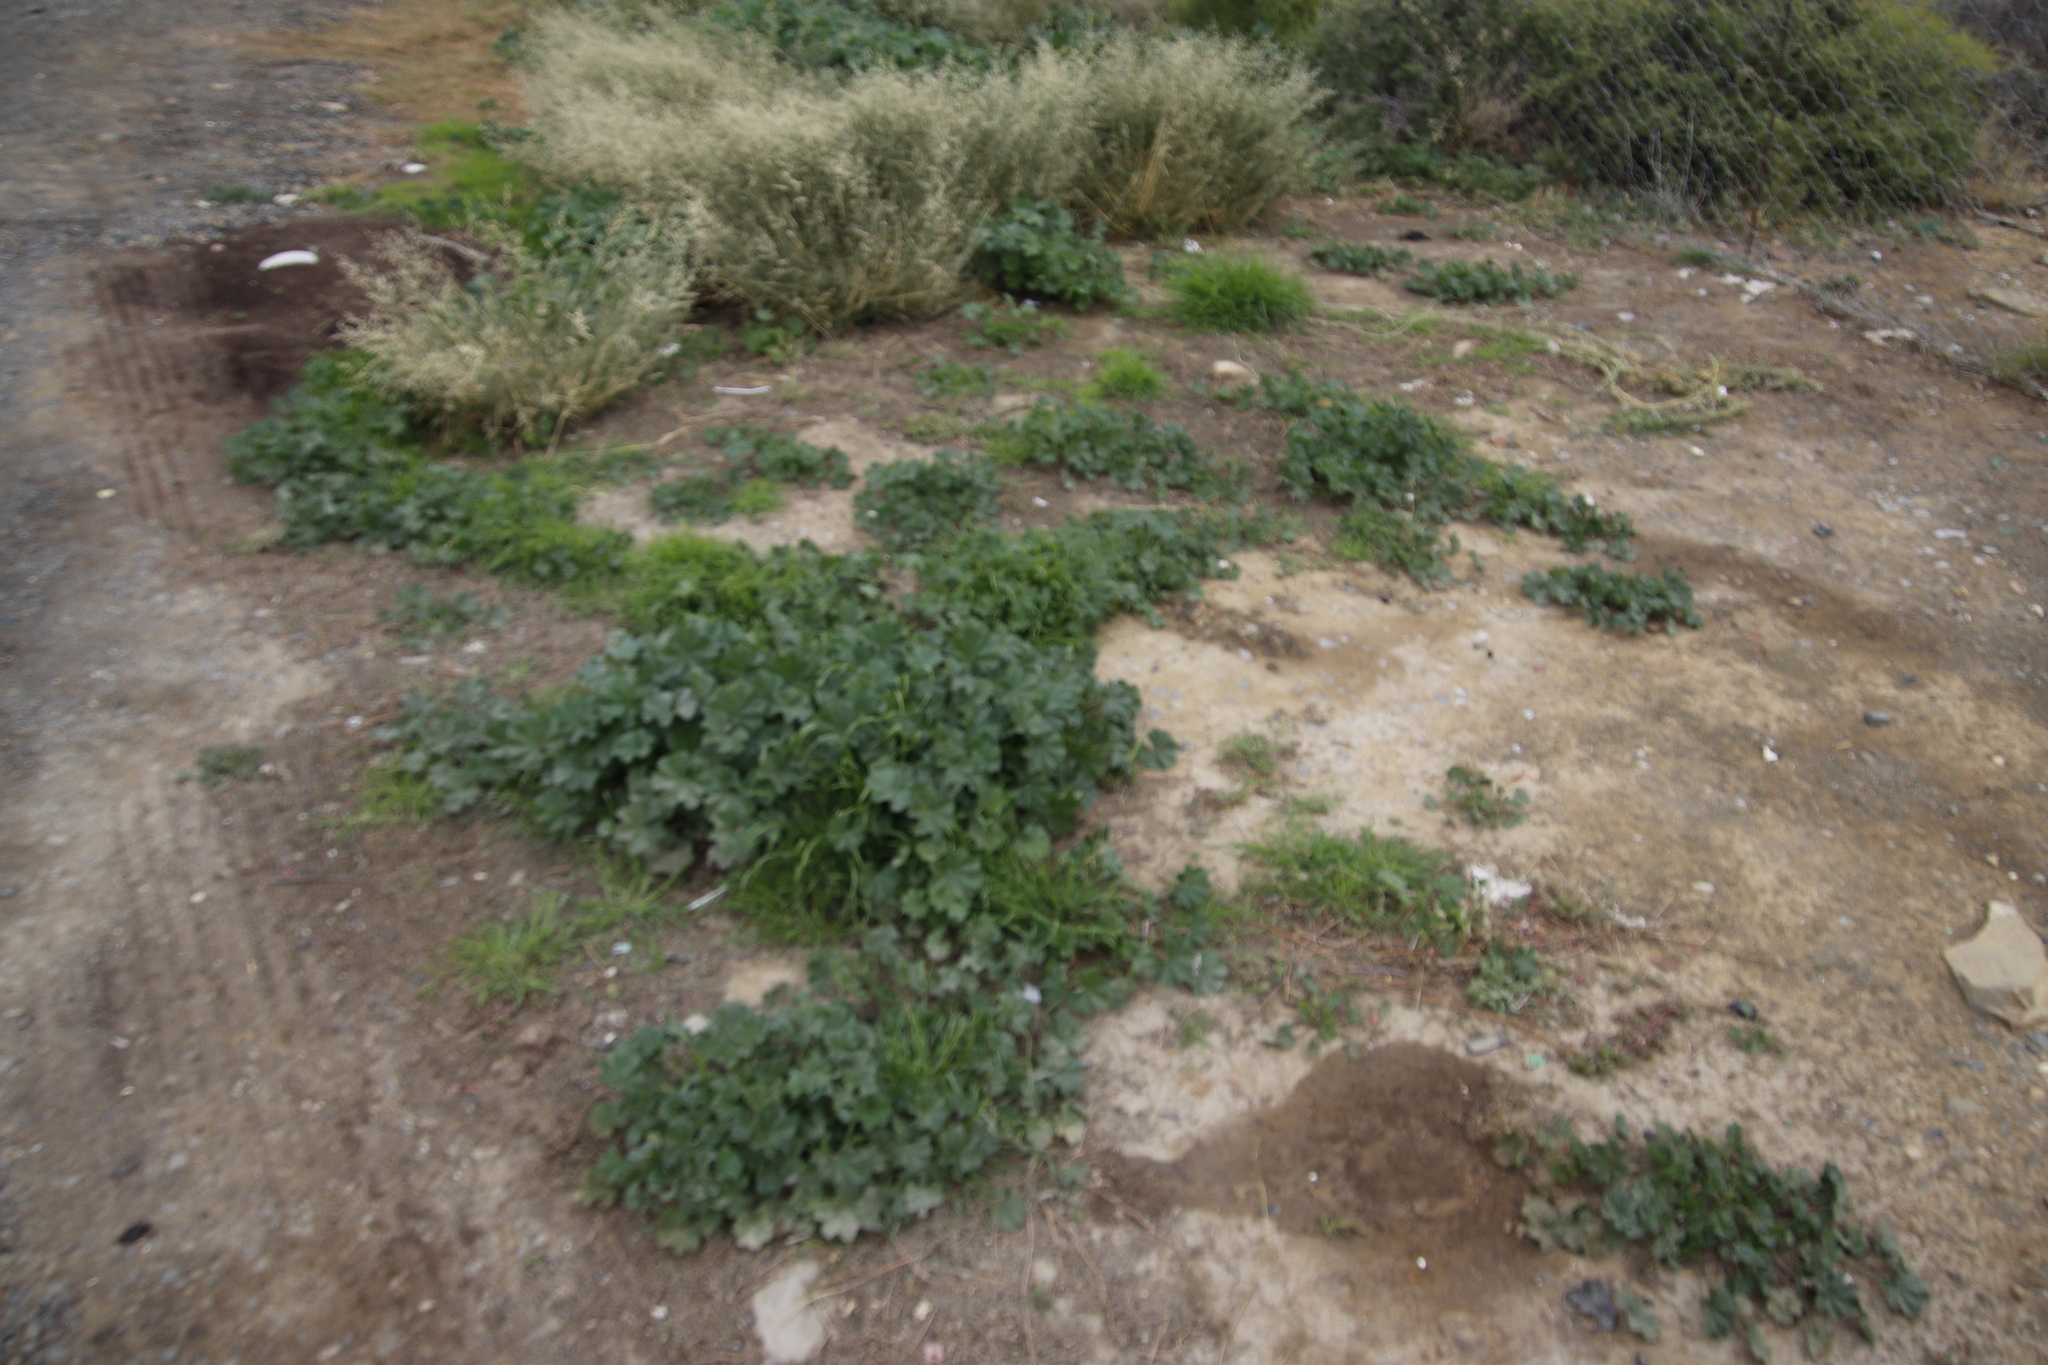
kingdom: Plantae
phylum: Tracheophyta
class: Magnoliopsida
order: Malvales
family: Malvaceae
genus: Malva
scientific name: Malva parviflora
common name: Least mallow
